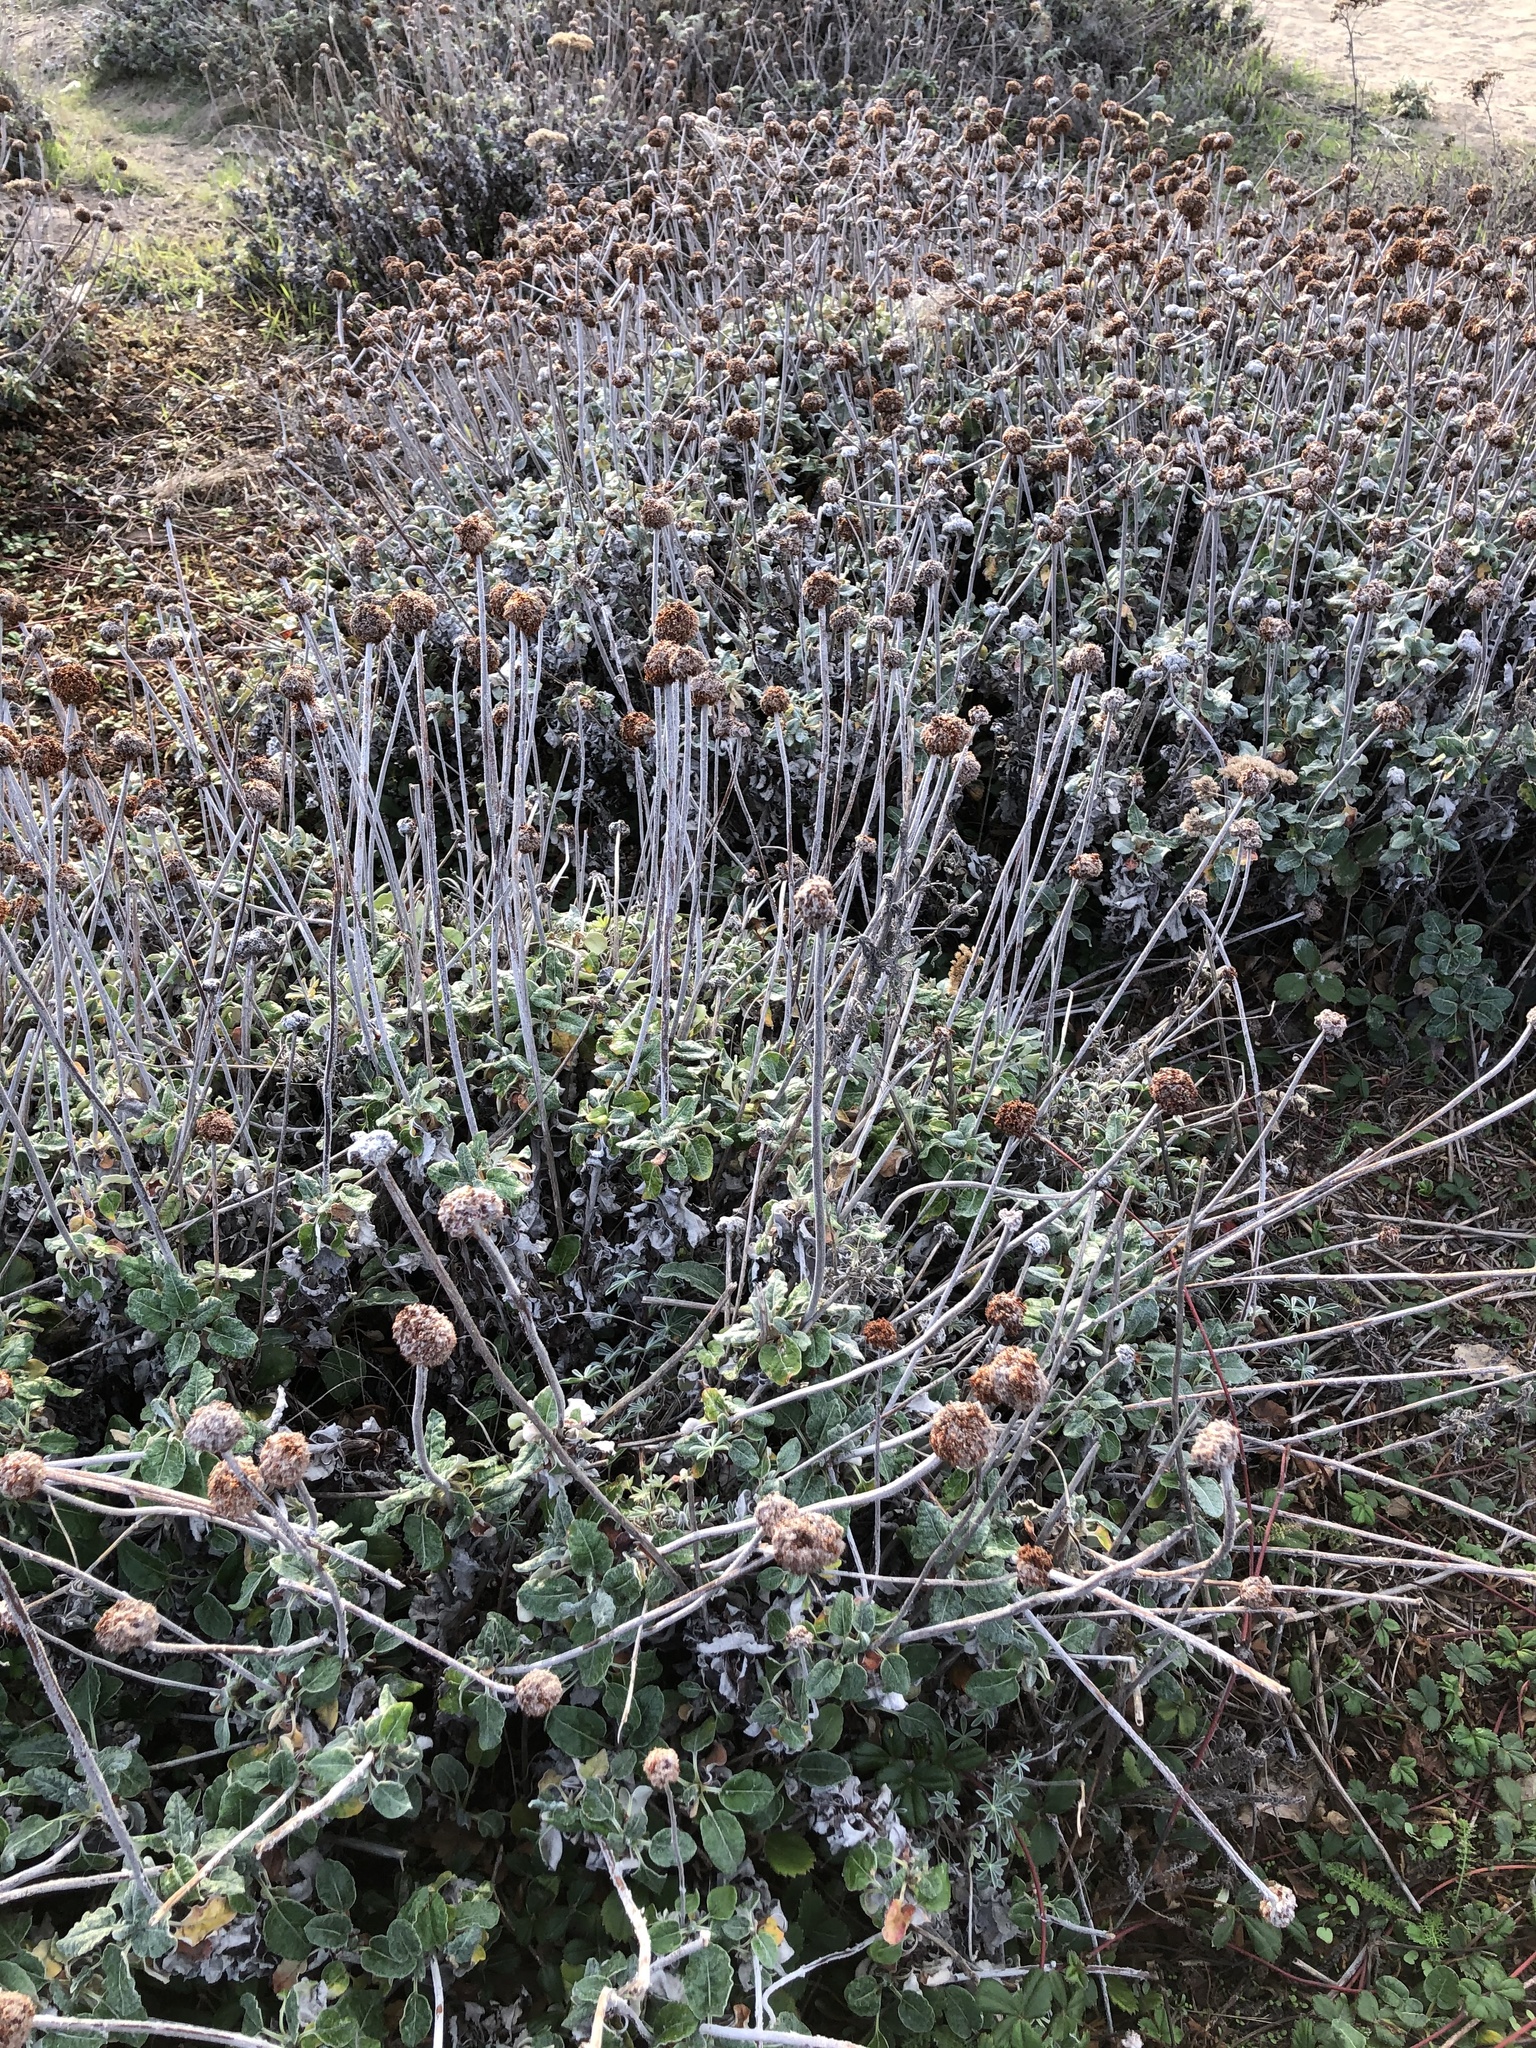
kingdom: Plantae
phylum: Tracheophyta
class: Magnoliopsida
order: Caryophyllales
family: Polygonaceae
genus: Eriogonum
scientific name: Eriogonum latifolium
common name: Seaside wild buckwheat
